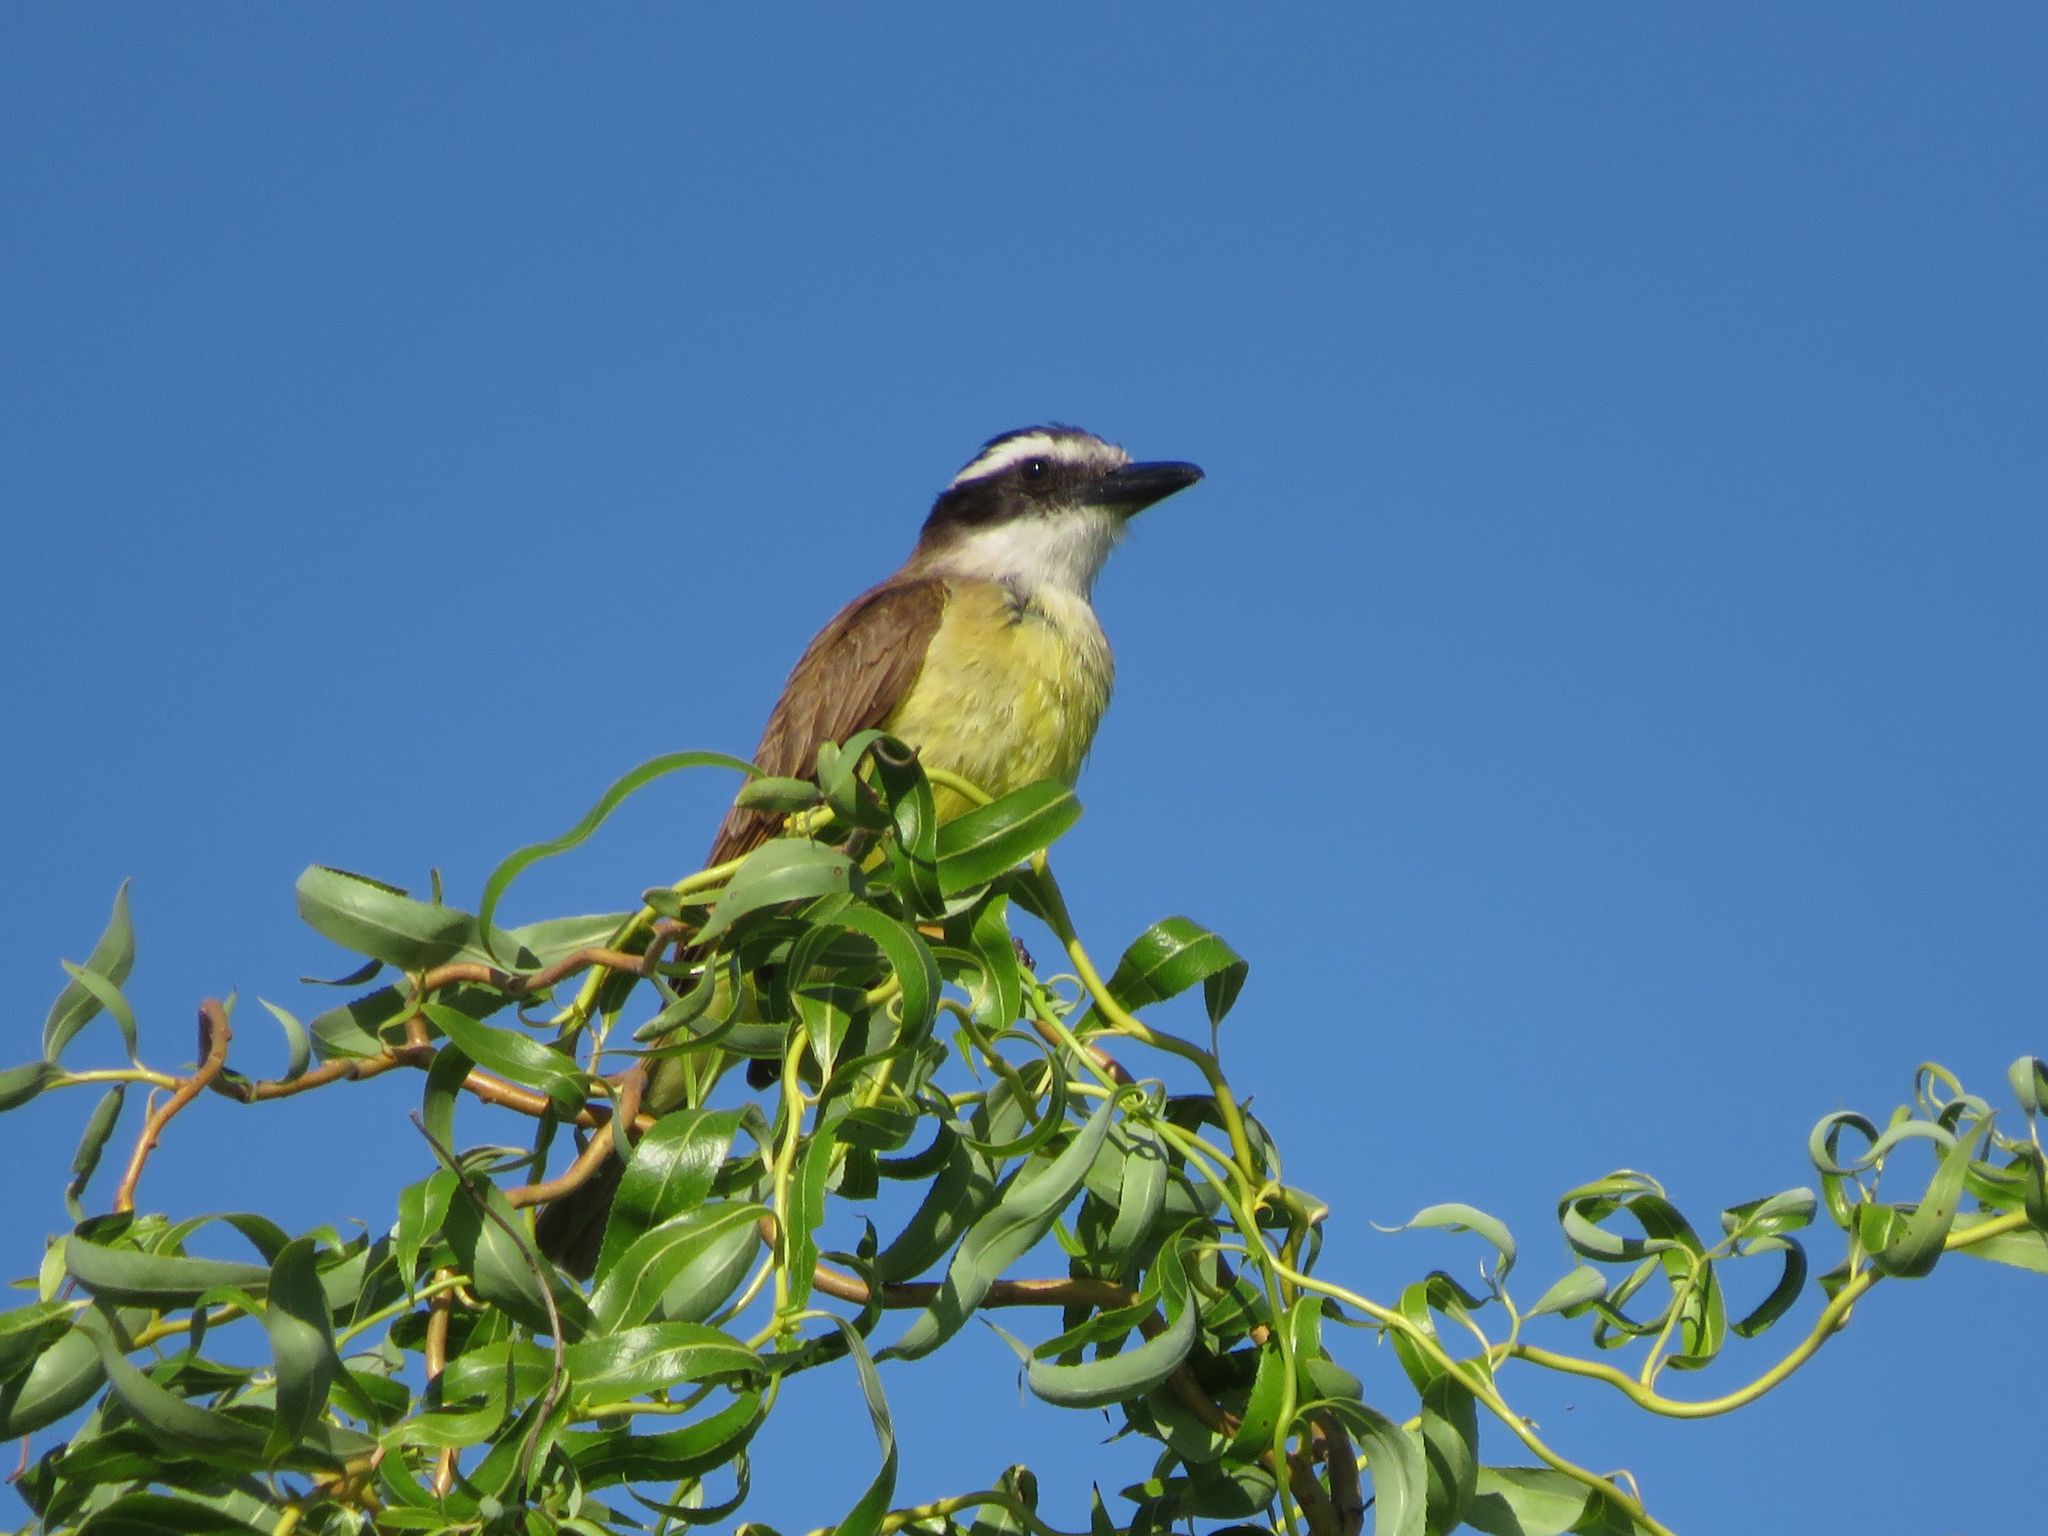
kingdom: Animalia
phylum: Chordata
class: Aves
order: Passeriformes
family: Tyrannidae
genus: Pitangus
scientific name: Pitangus sulphuratus
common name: Great kiskadee
